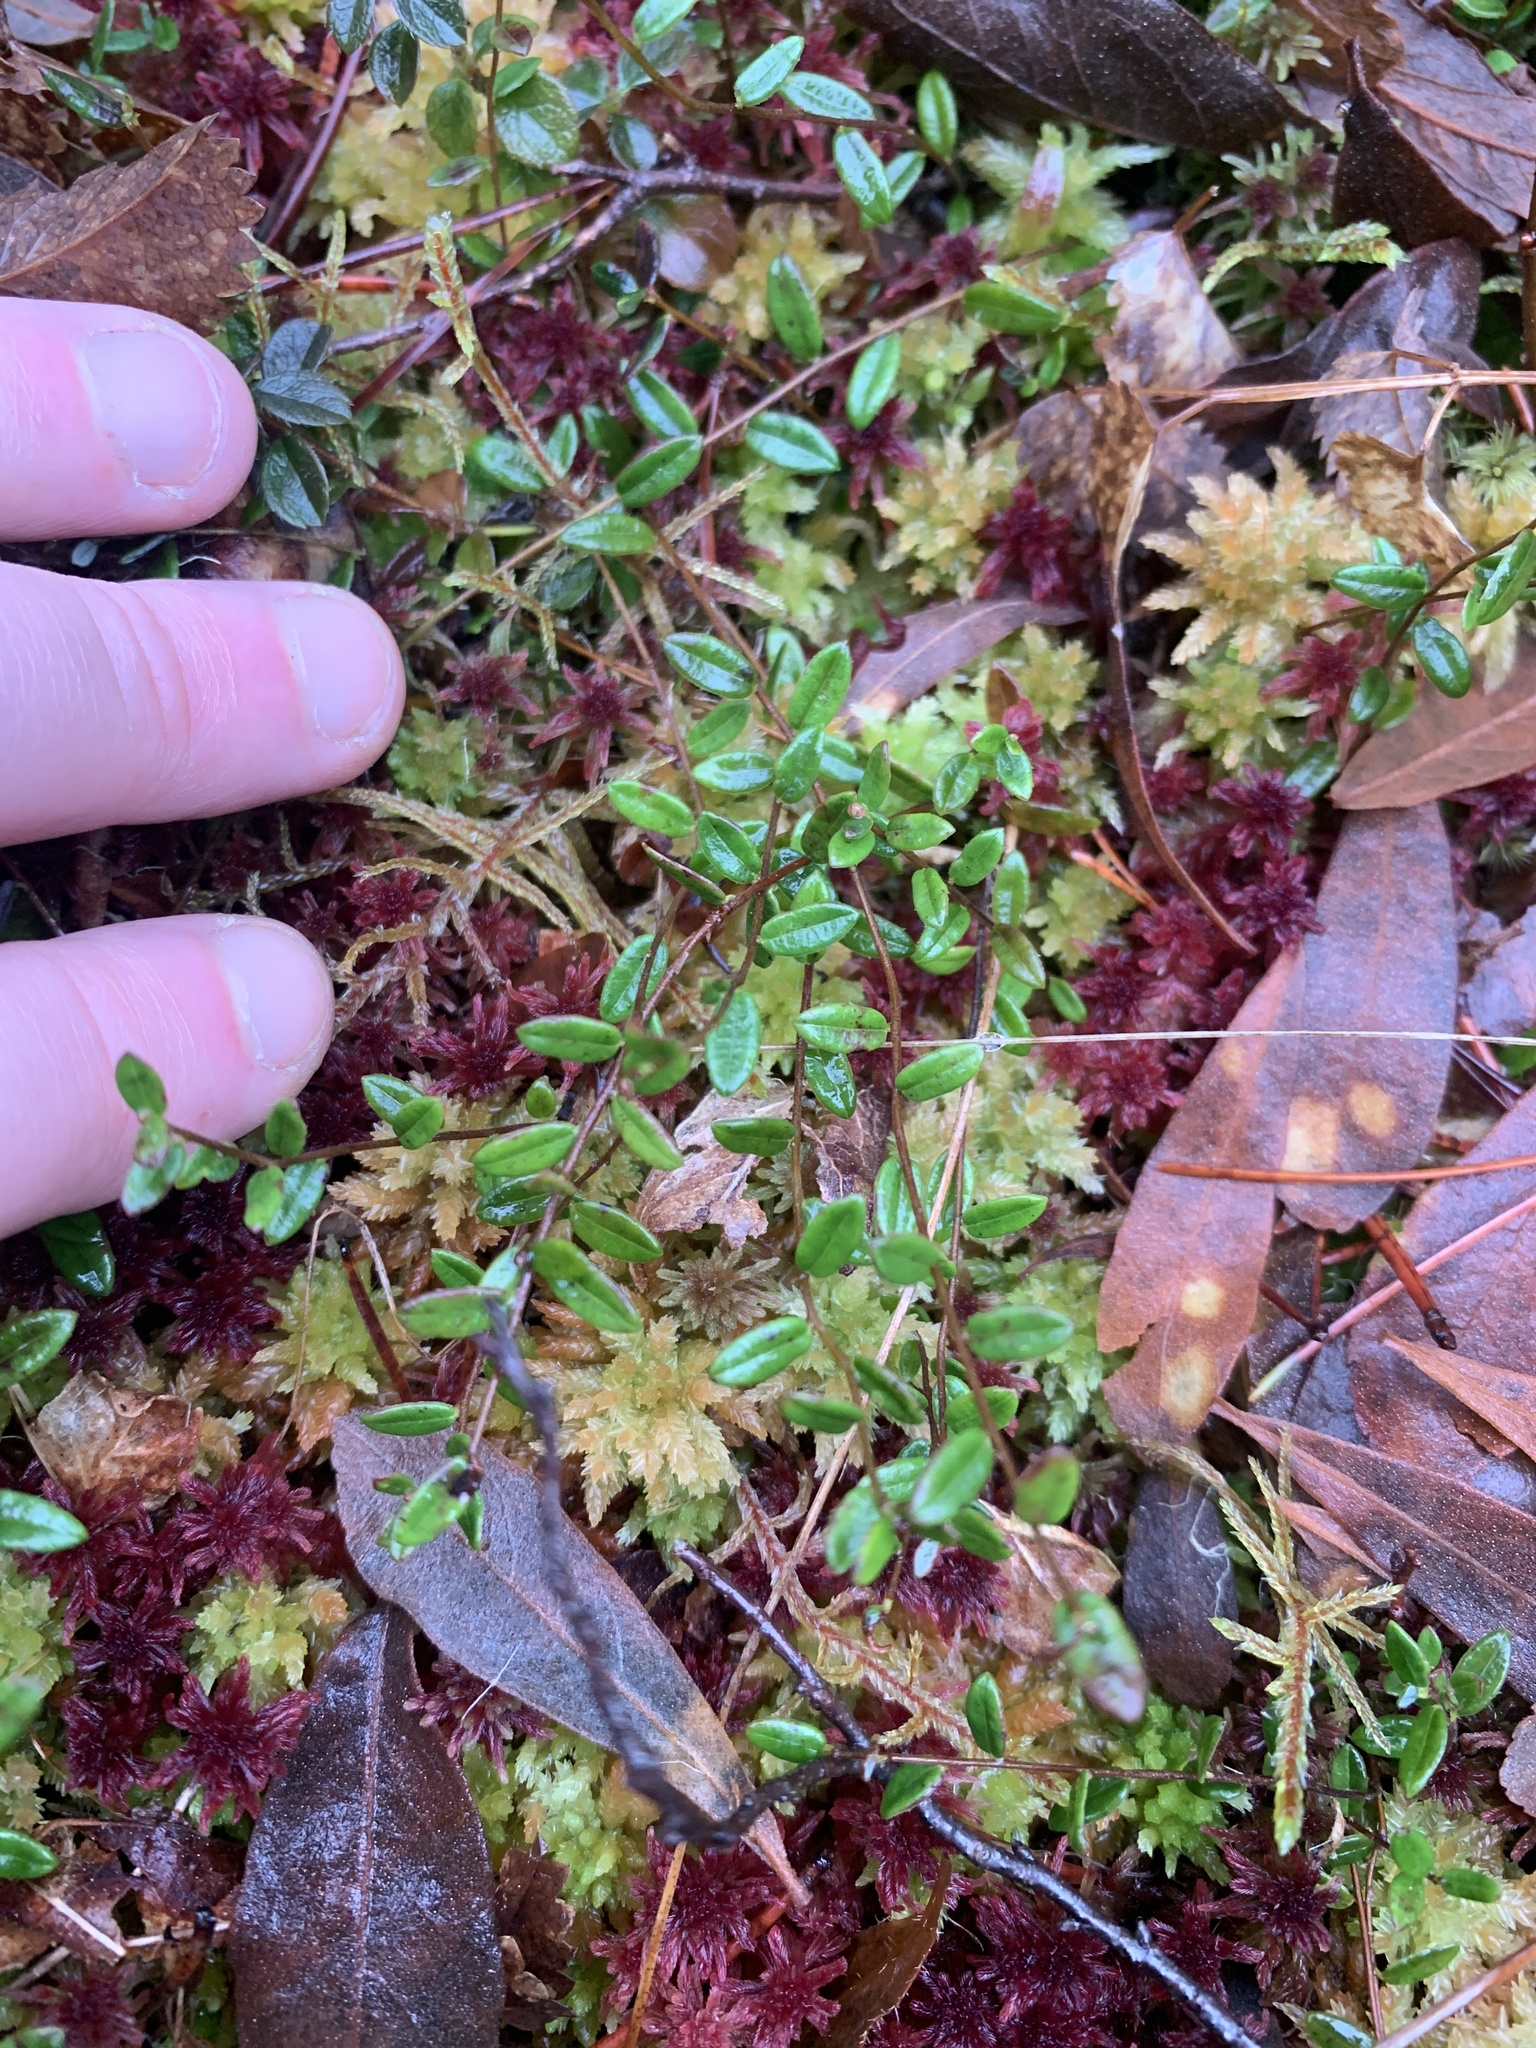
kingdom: Plantae
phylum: Tracheophyta
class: Magnoliopsida
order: Ericales
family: Ericaceae
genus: Vaccinium
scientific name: Vaccinium oxycoccos
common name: Cranberry
